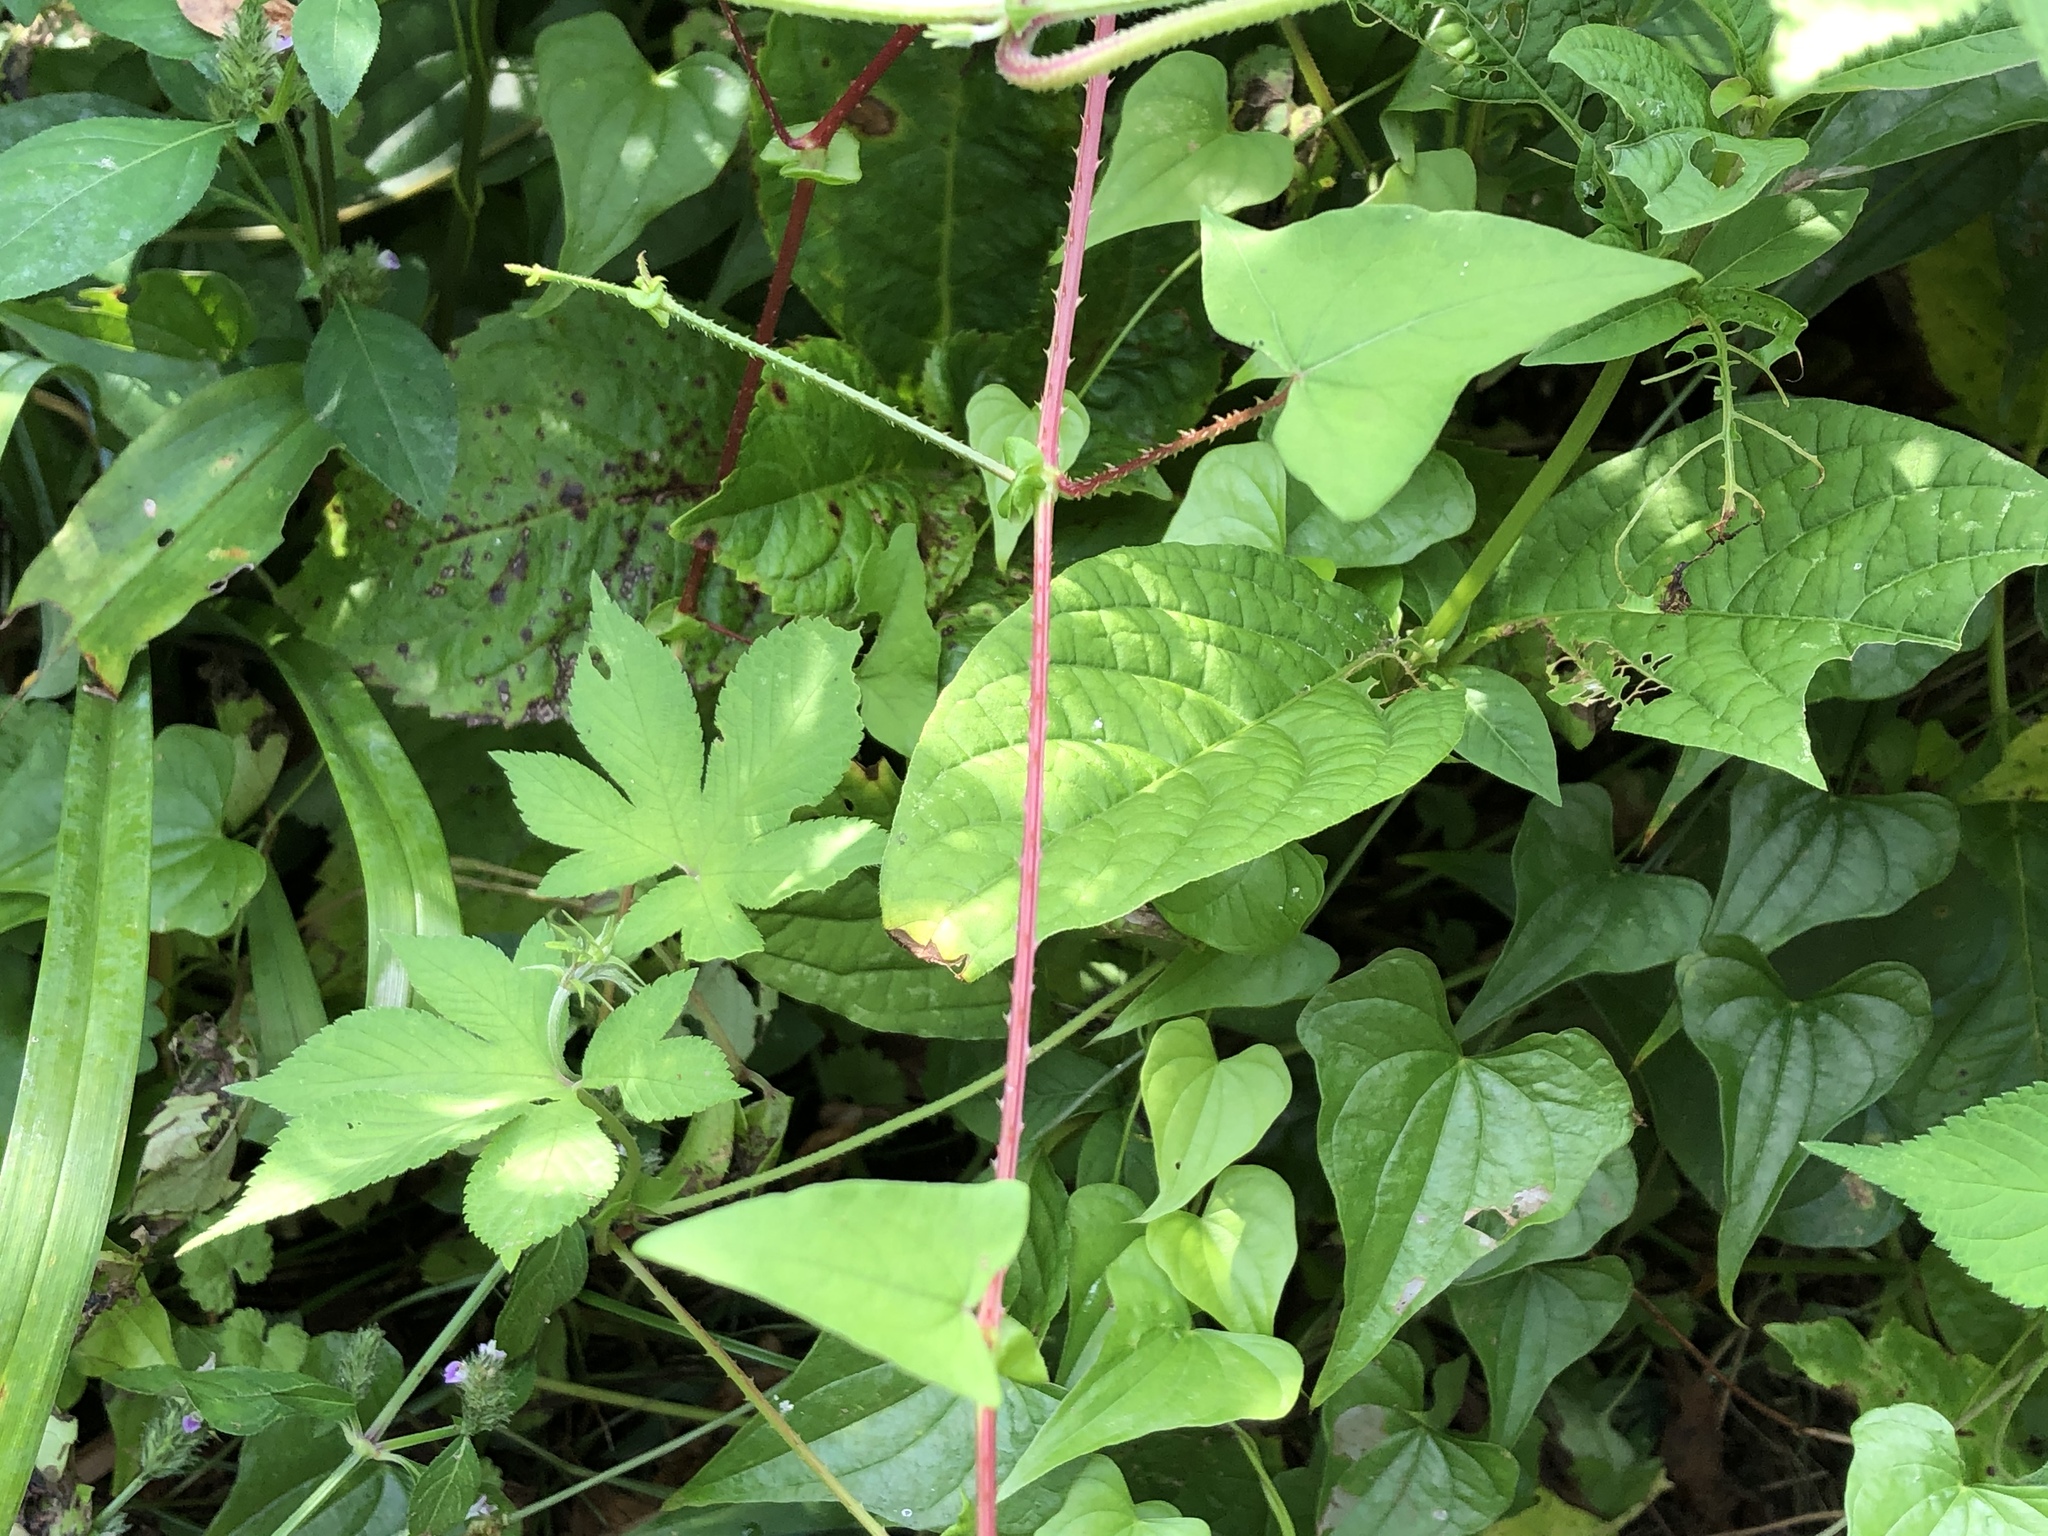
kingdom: Plantae
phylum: Tracheophyta
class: Magnoliopsida
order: Caryophyllales
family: Polygonaceae
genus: Persicaria
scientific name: Persicaria senticosa
